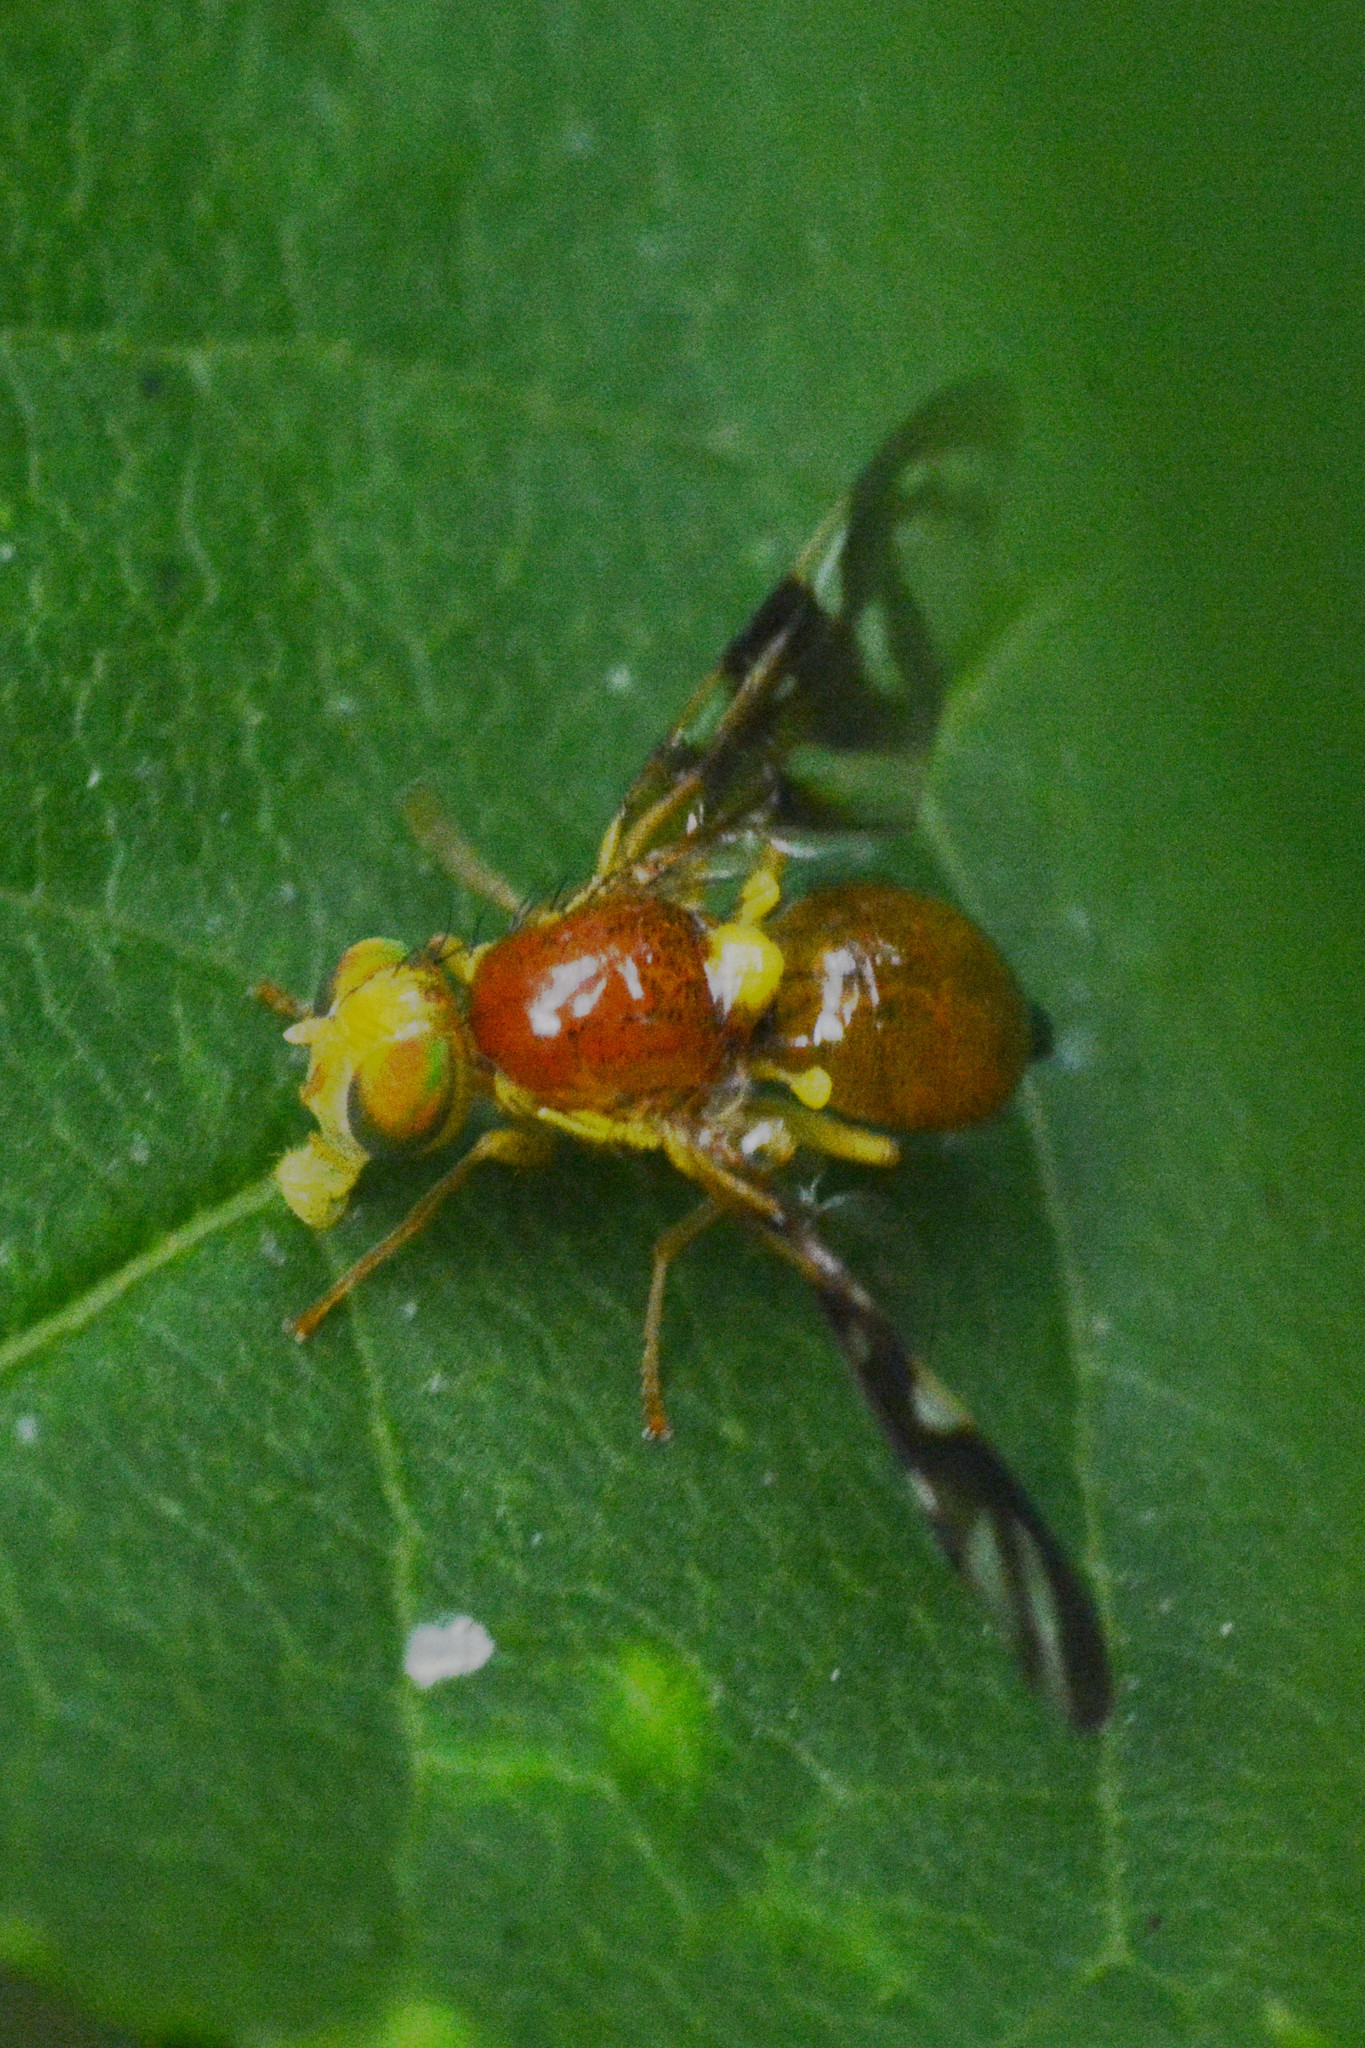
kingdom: Animalia
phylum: Arthropoda
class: Insecta
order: Diptera
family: Tephritidae
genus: Euleia
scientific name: Euleia heraclei
